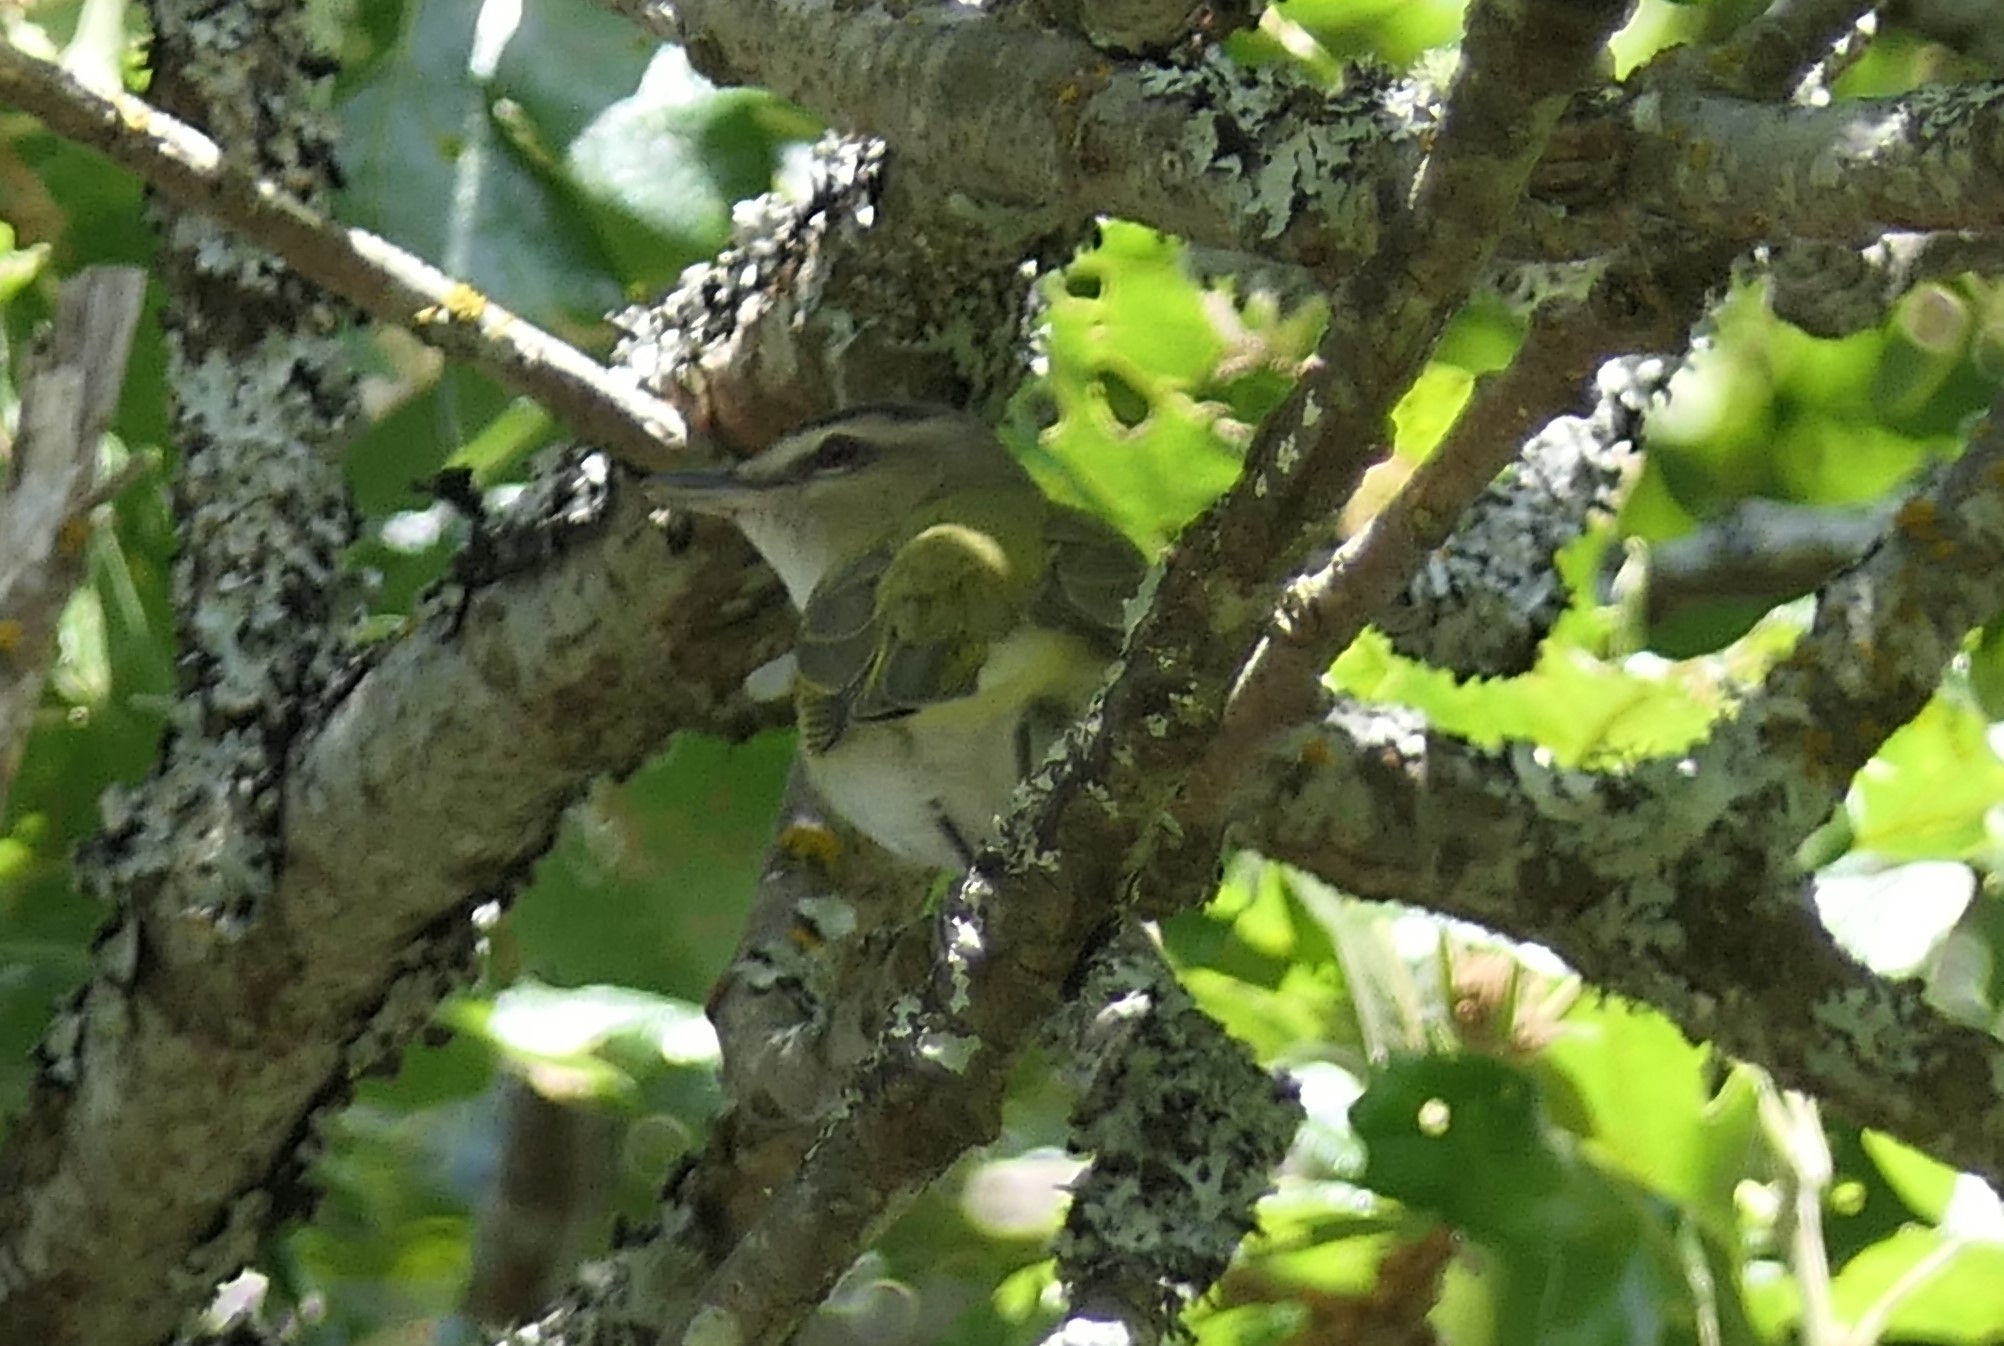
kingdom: Animalia
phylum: Chordata
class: Aves
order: Passeriformes
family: Vireonidae
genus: Vireo
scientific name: Vireo olivaceus
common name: Red-eyed vireo
